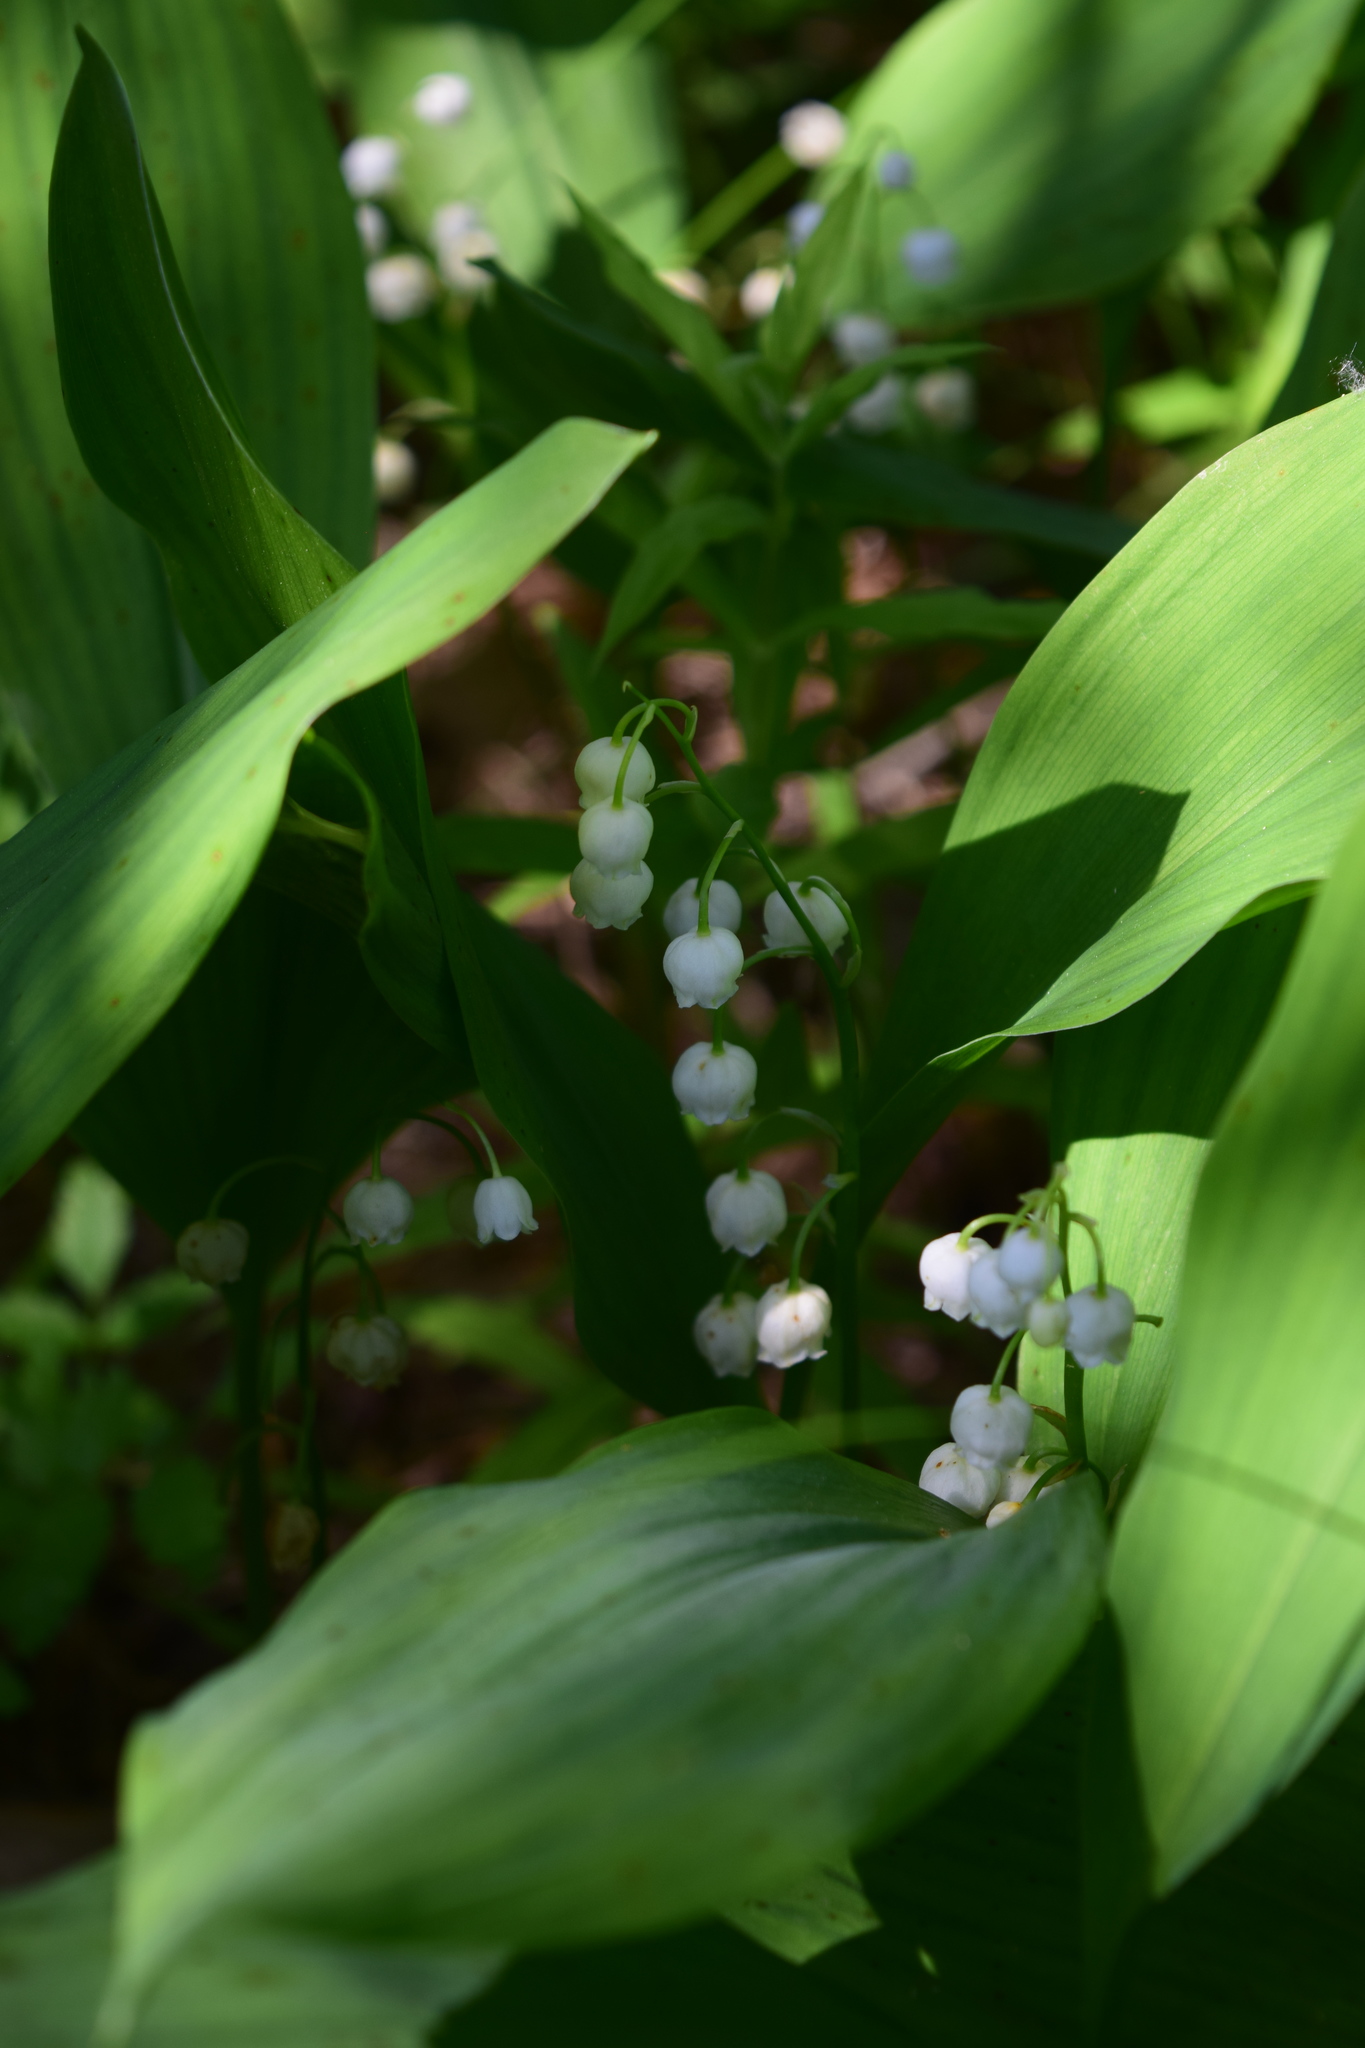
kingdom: Plantae
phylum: Tracheophyta
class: Liliopsida
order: Asparagales
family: Asparagaceae
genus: Convallaria
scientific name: Convallaria majalis
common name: Lily-of-the-valley
